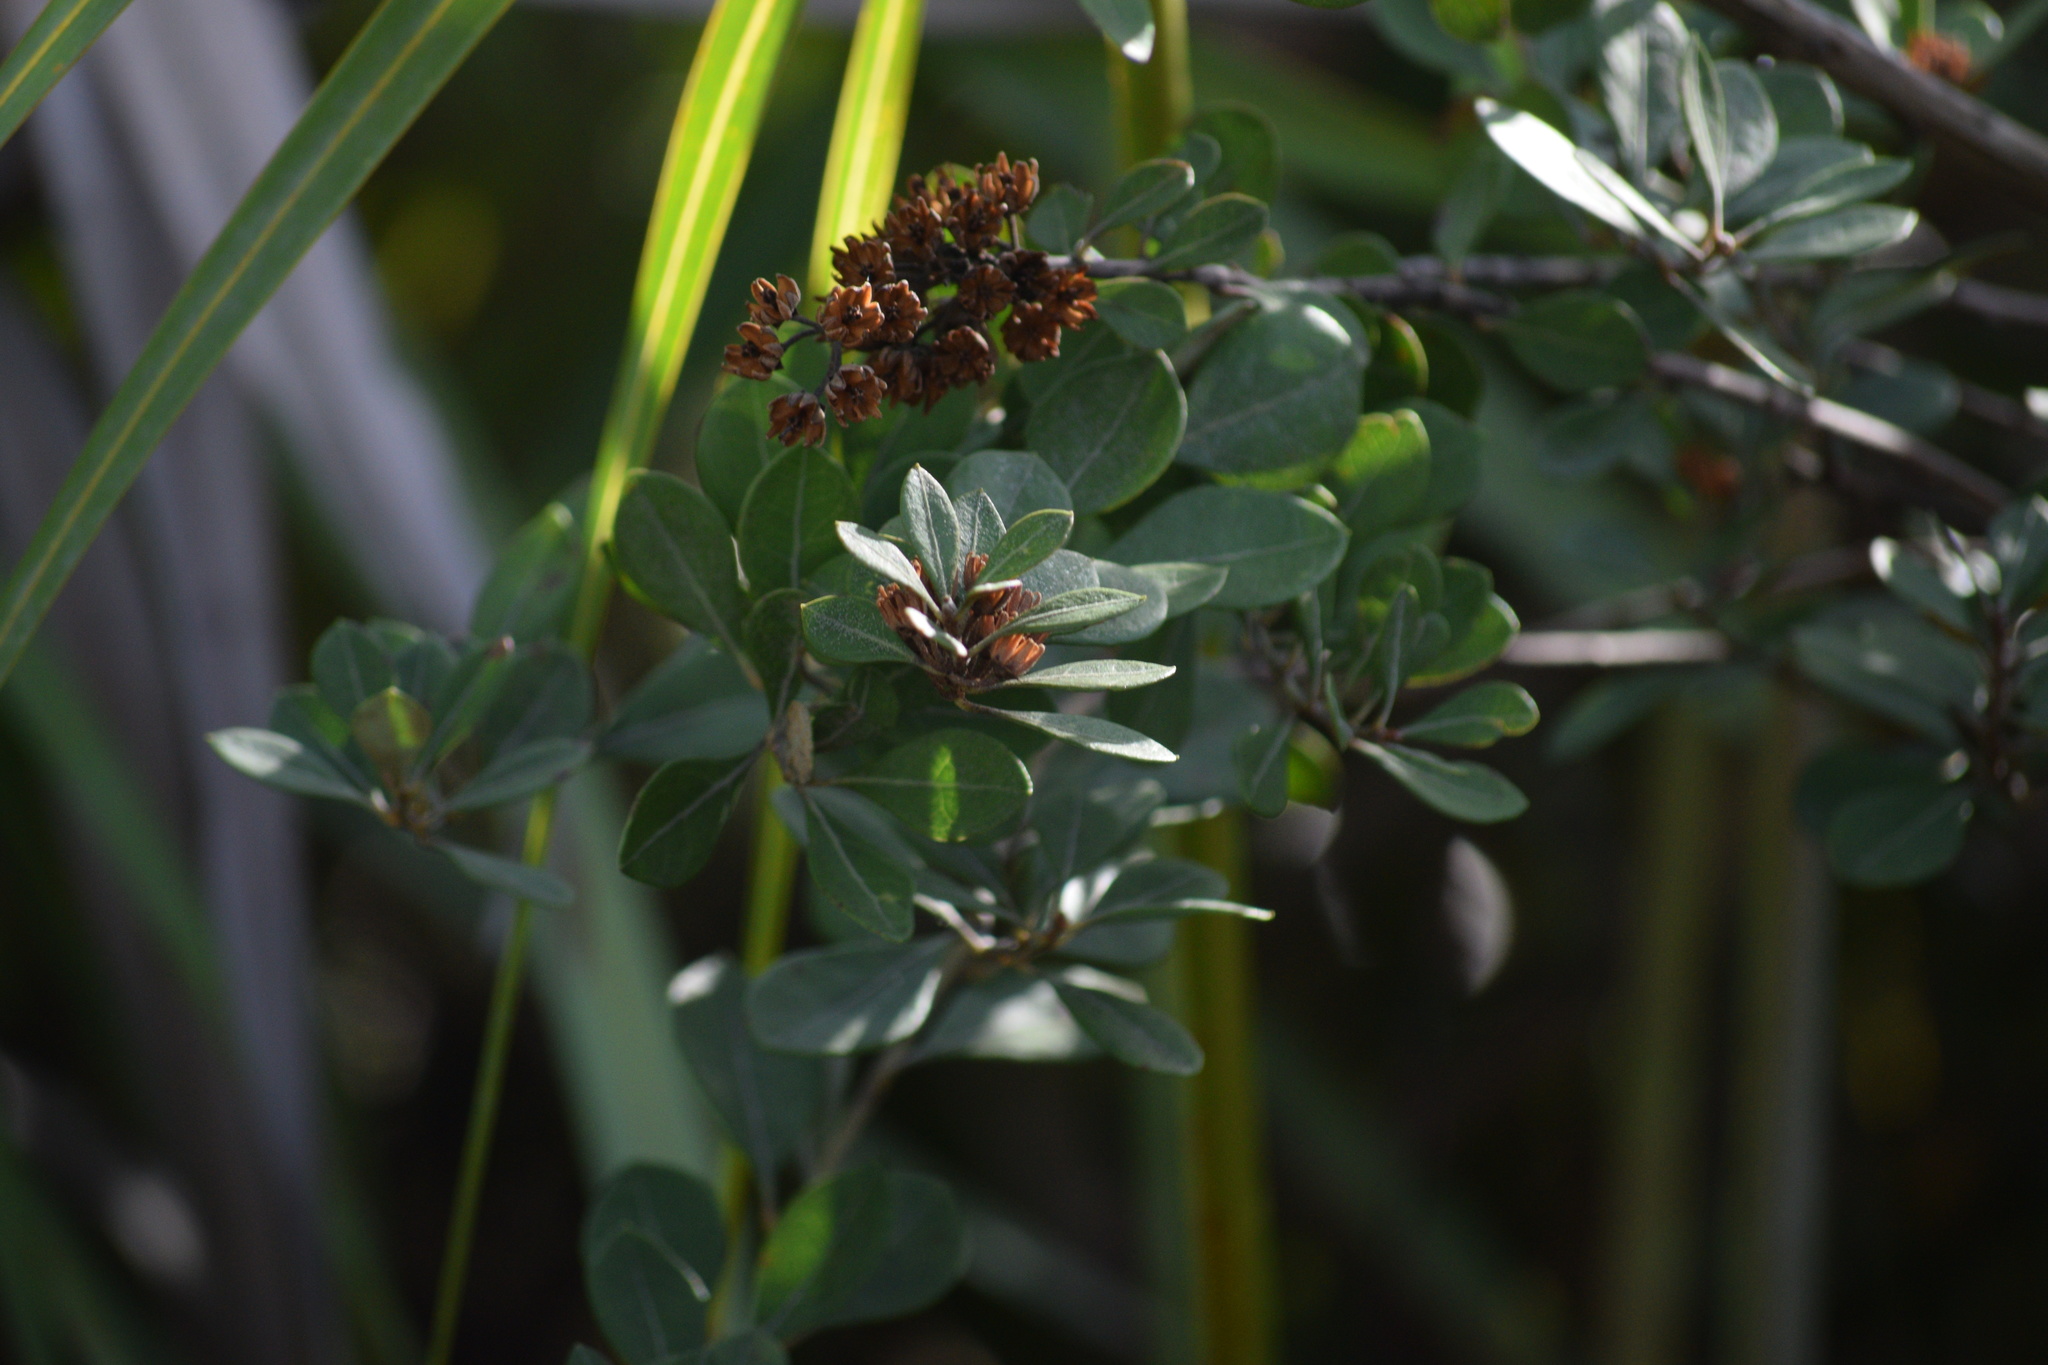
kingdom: Plantae
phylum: Tracheophyta
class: Magnoliopsida
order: Ericales
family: Ericaceae
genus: Lyonia
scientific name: Lyonia fruticosa
